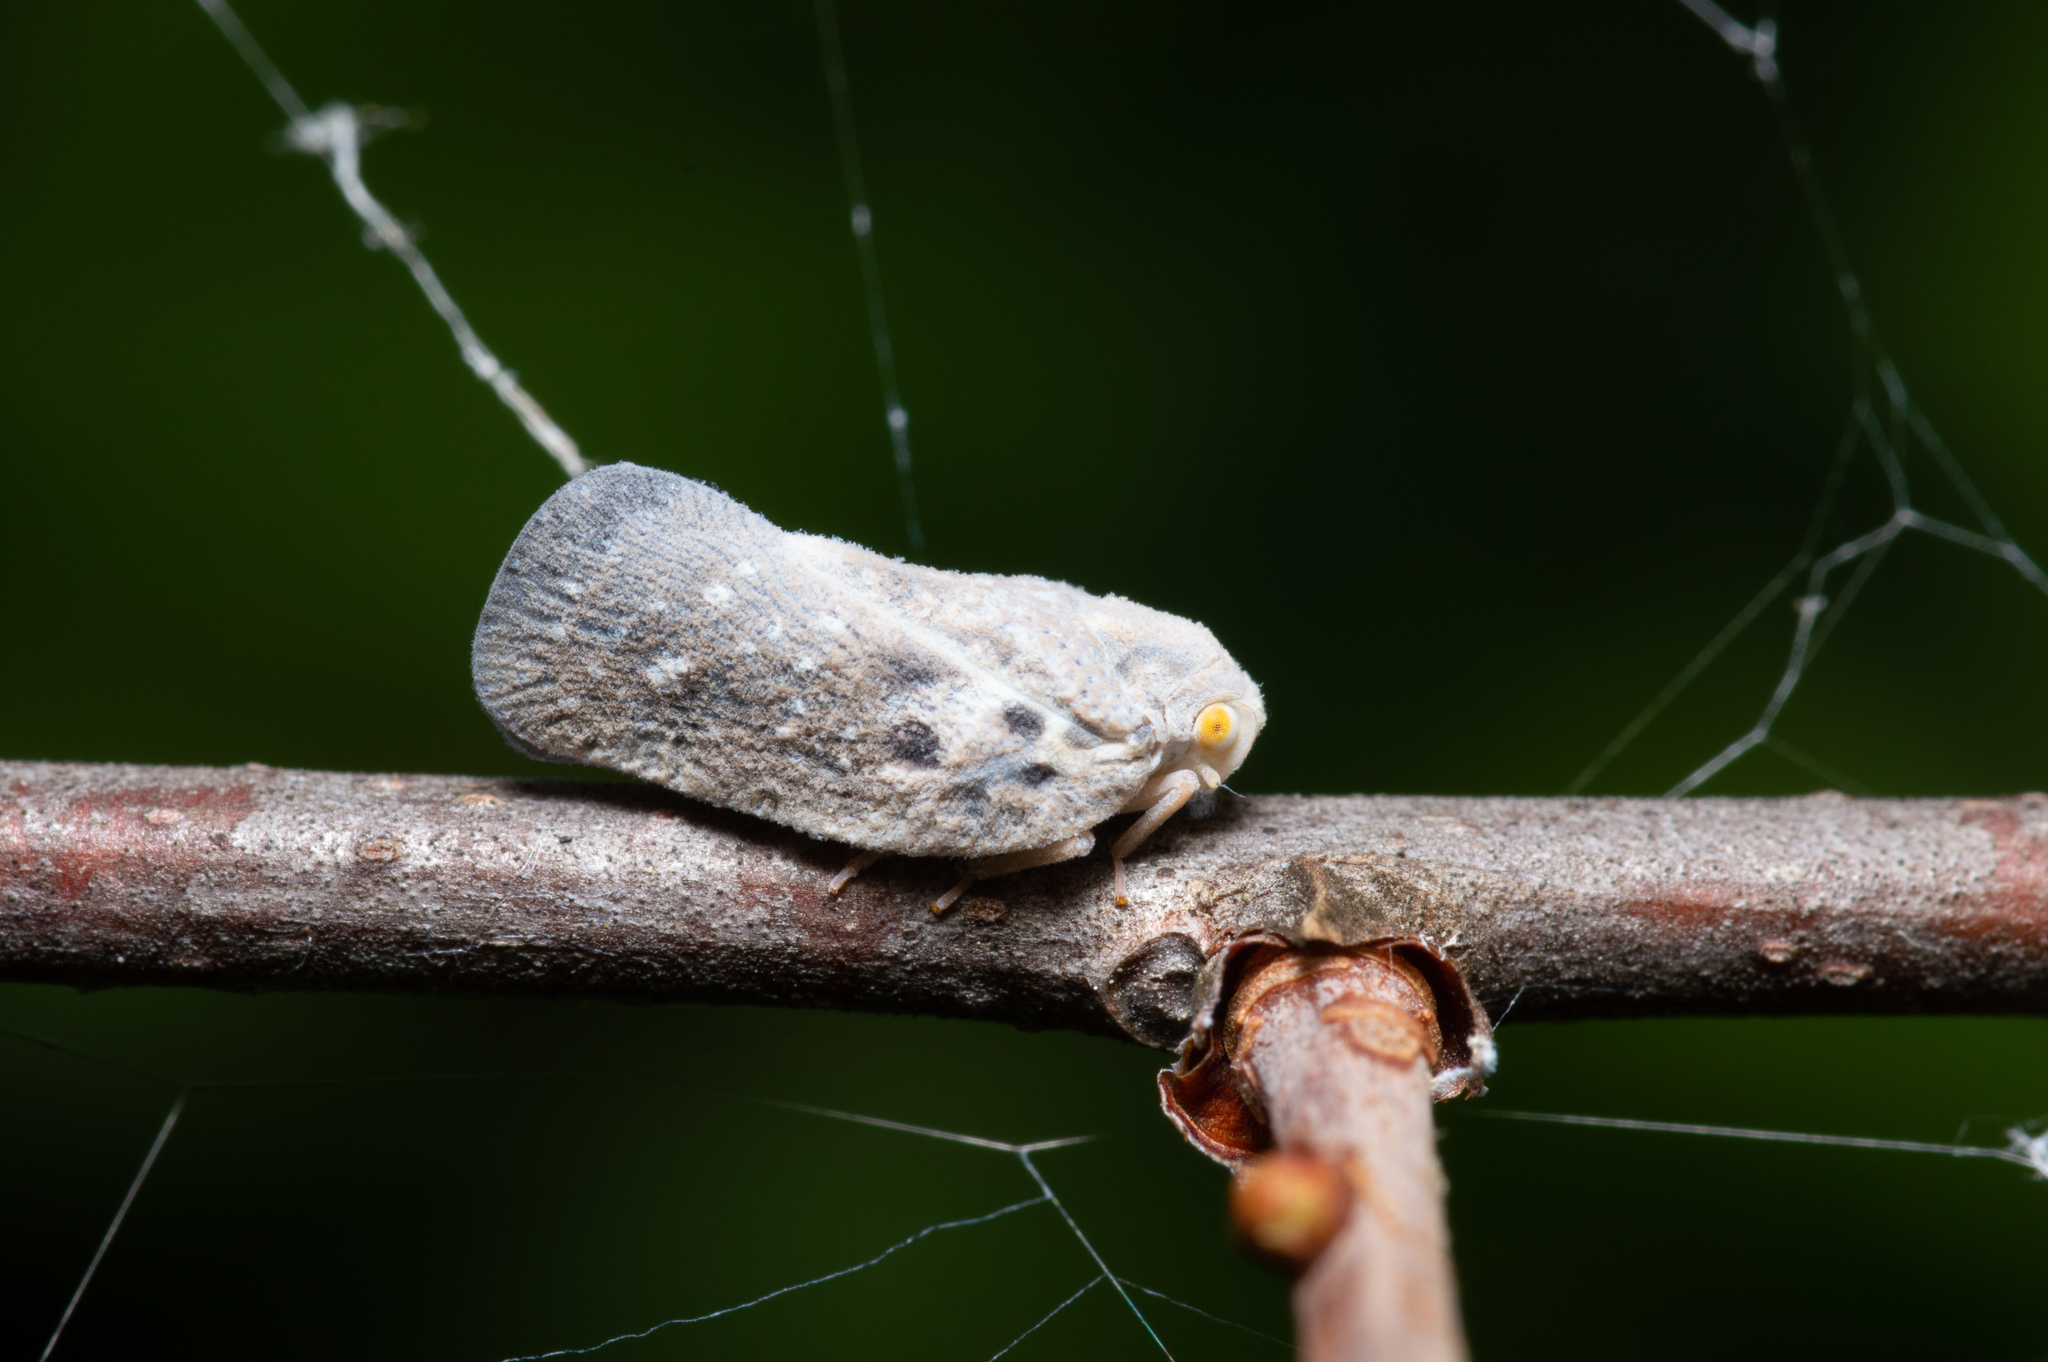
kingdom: Animalia
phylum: Arthropoda
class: Insecta
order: Hemiptera
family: Flatidae
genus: Metcalfa
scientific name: Metcalfa pruinosa
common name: Citrus flatid planthopper
